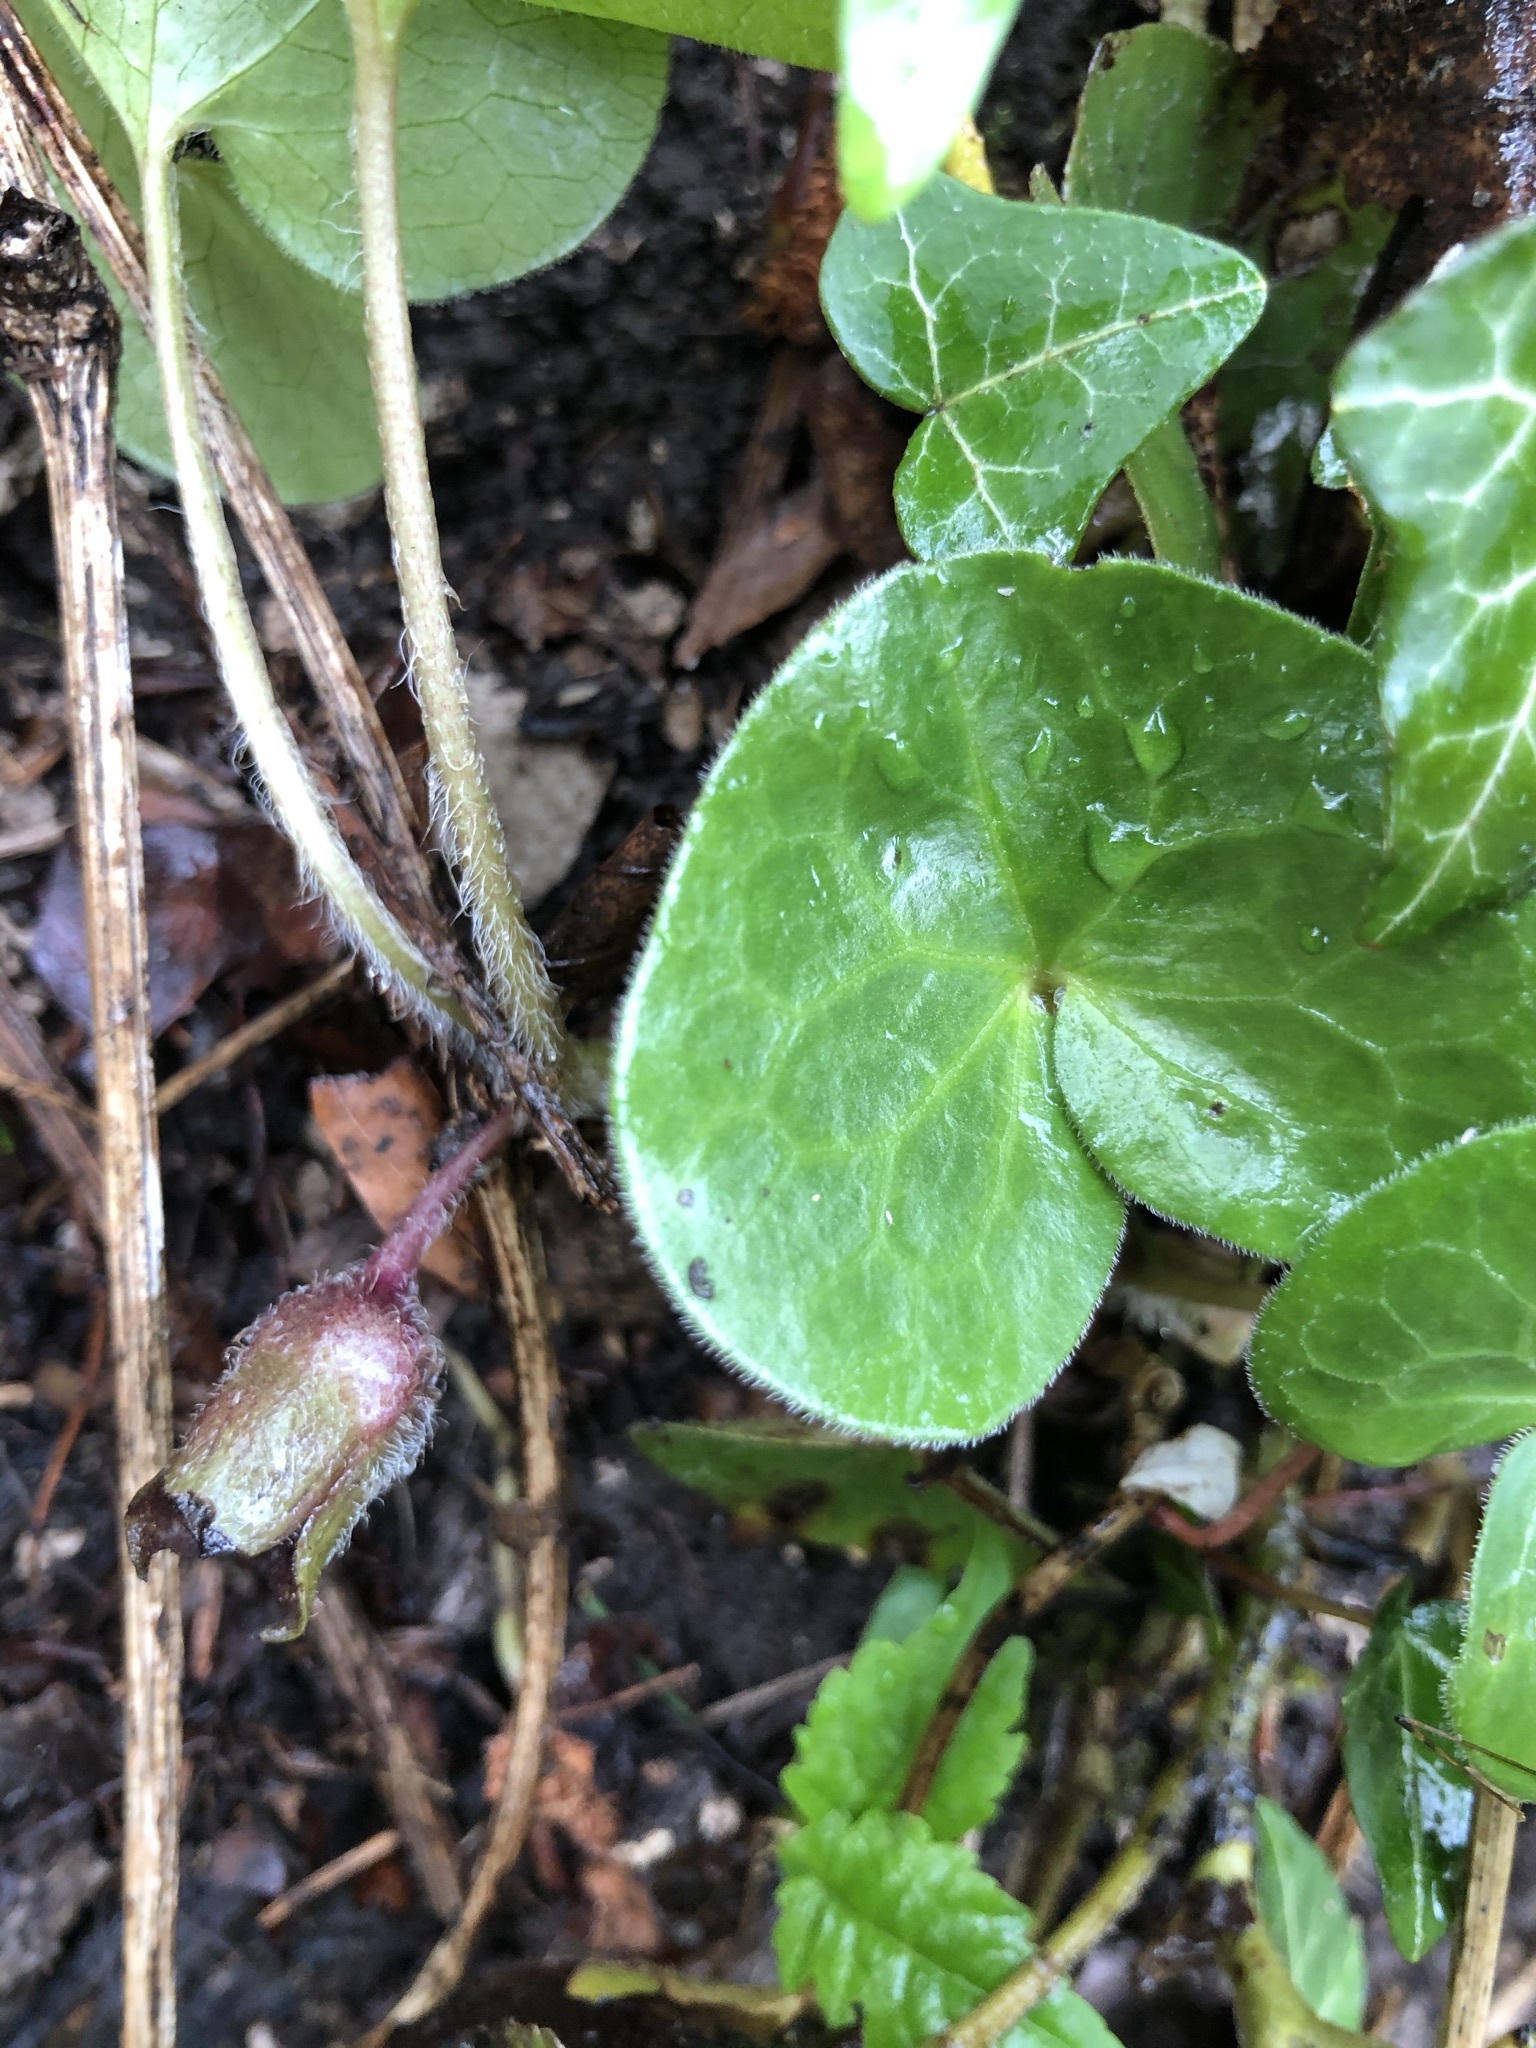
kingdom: Plantae
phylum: Tracheophyta
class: Magnoliopsida
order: Piperales
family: Aristolochiaceae
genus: Asarum
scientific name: Asarum europaeum
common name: Asarabacca
